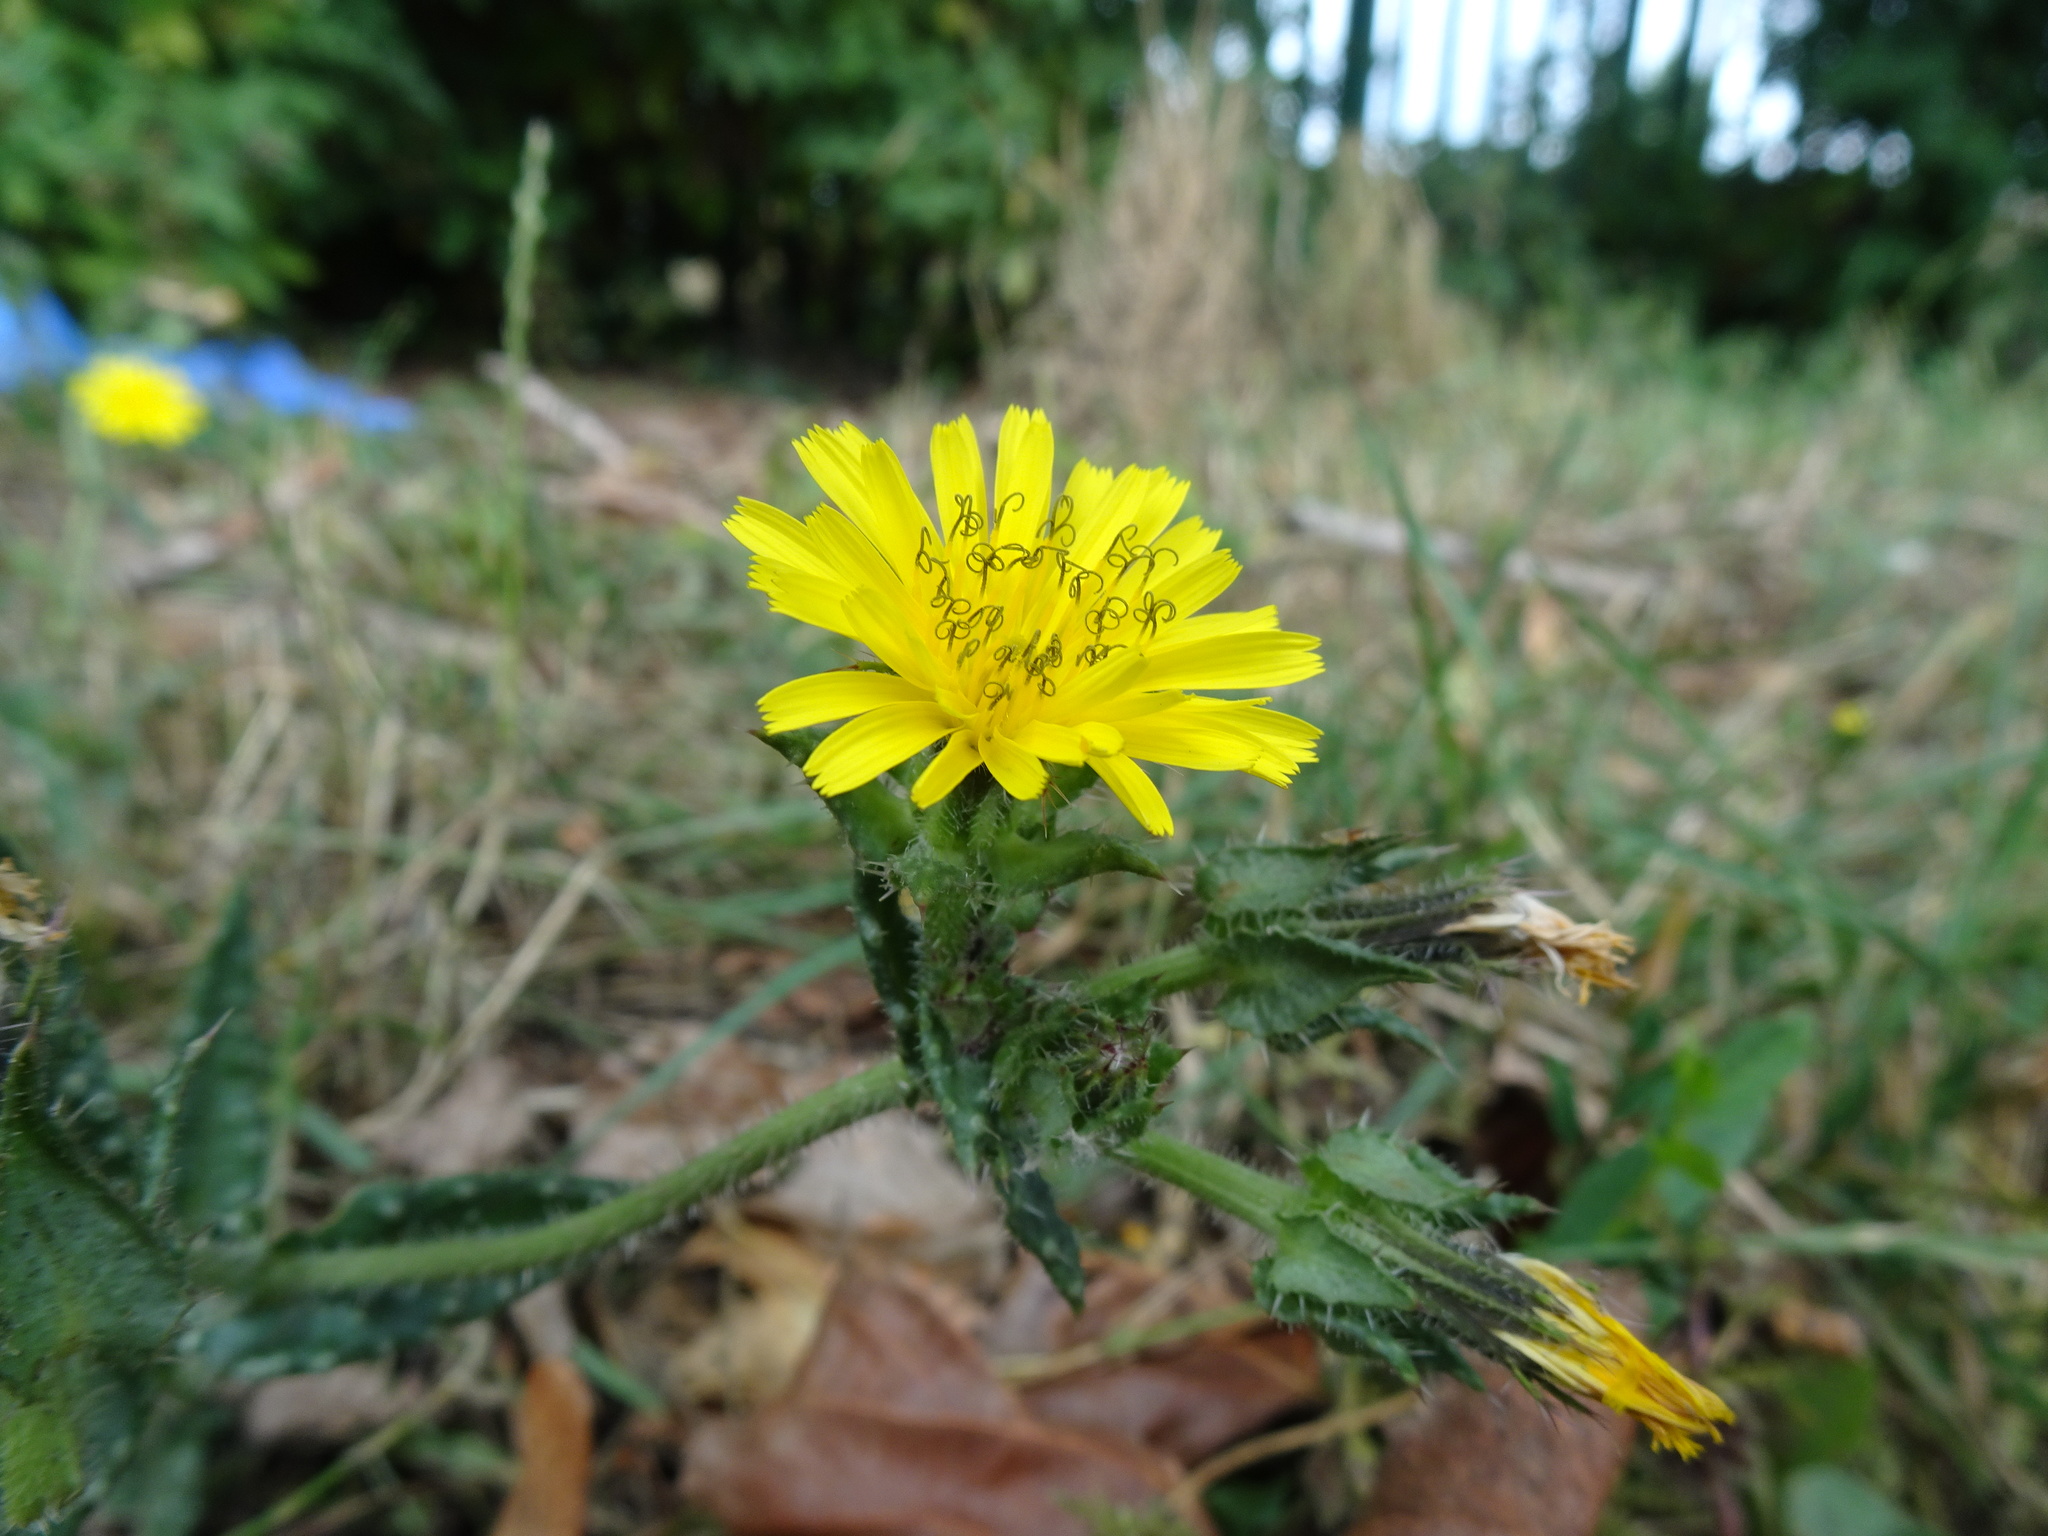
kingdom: Plantae
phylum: Tracheophyta
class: Magnoliopsida
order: Asterales
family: Asteraceae
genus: Helminthotheca
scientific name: Helminthotheca echioides
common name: Ox-tongue
